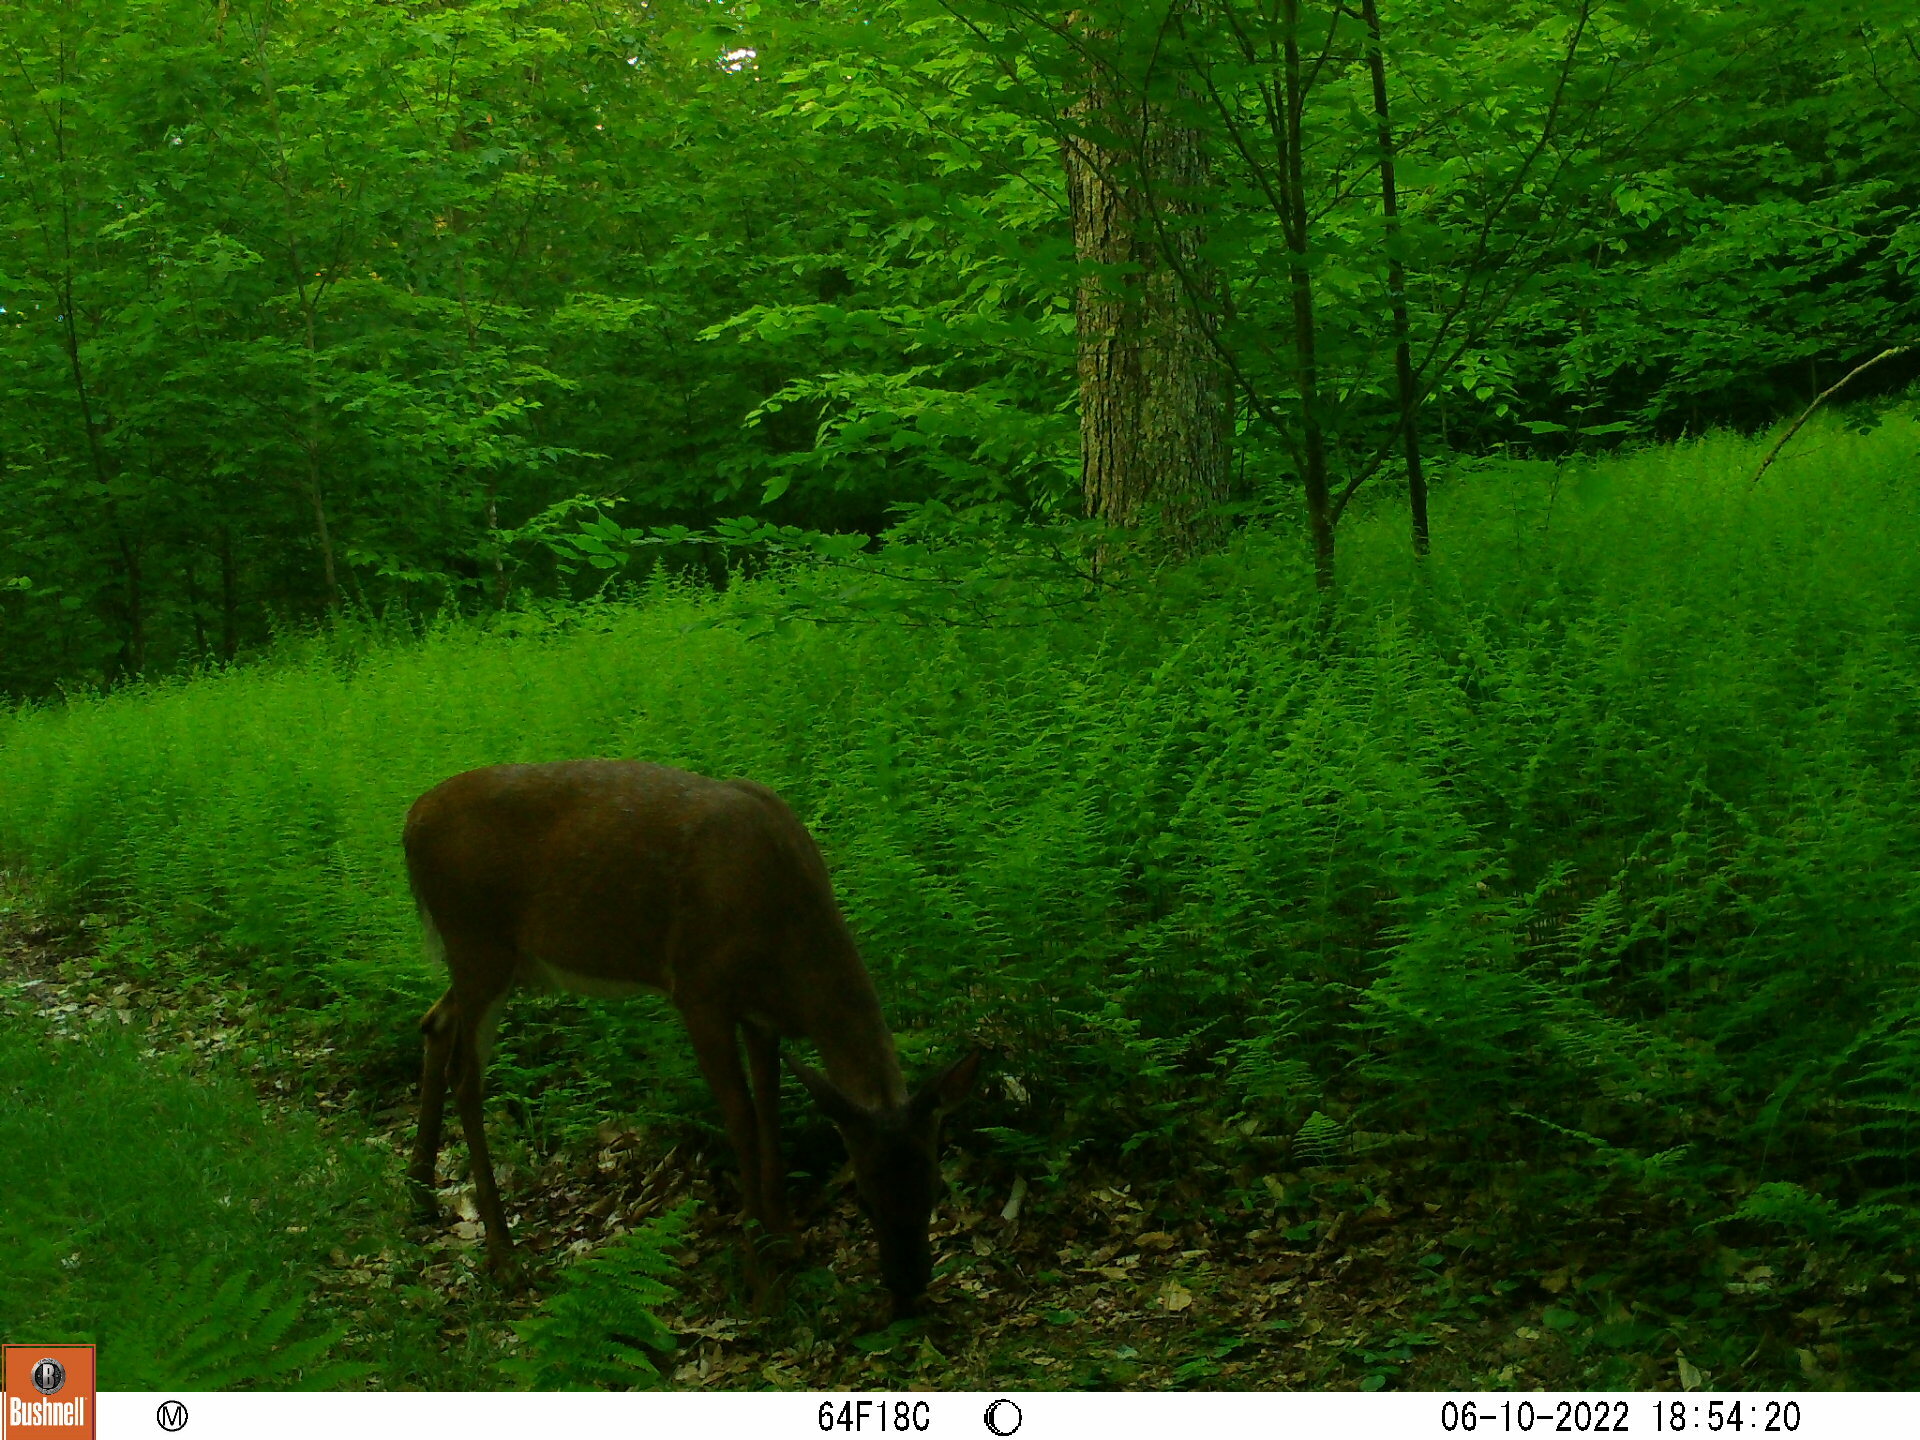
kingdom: Animalia
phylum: Chordata
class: Mammalia
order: Artiodactyla
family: Cervidae
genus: Odocoileus
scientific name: Odocoileus virginianus
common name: White-tailed deer
